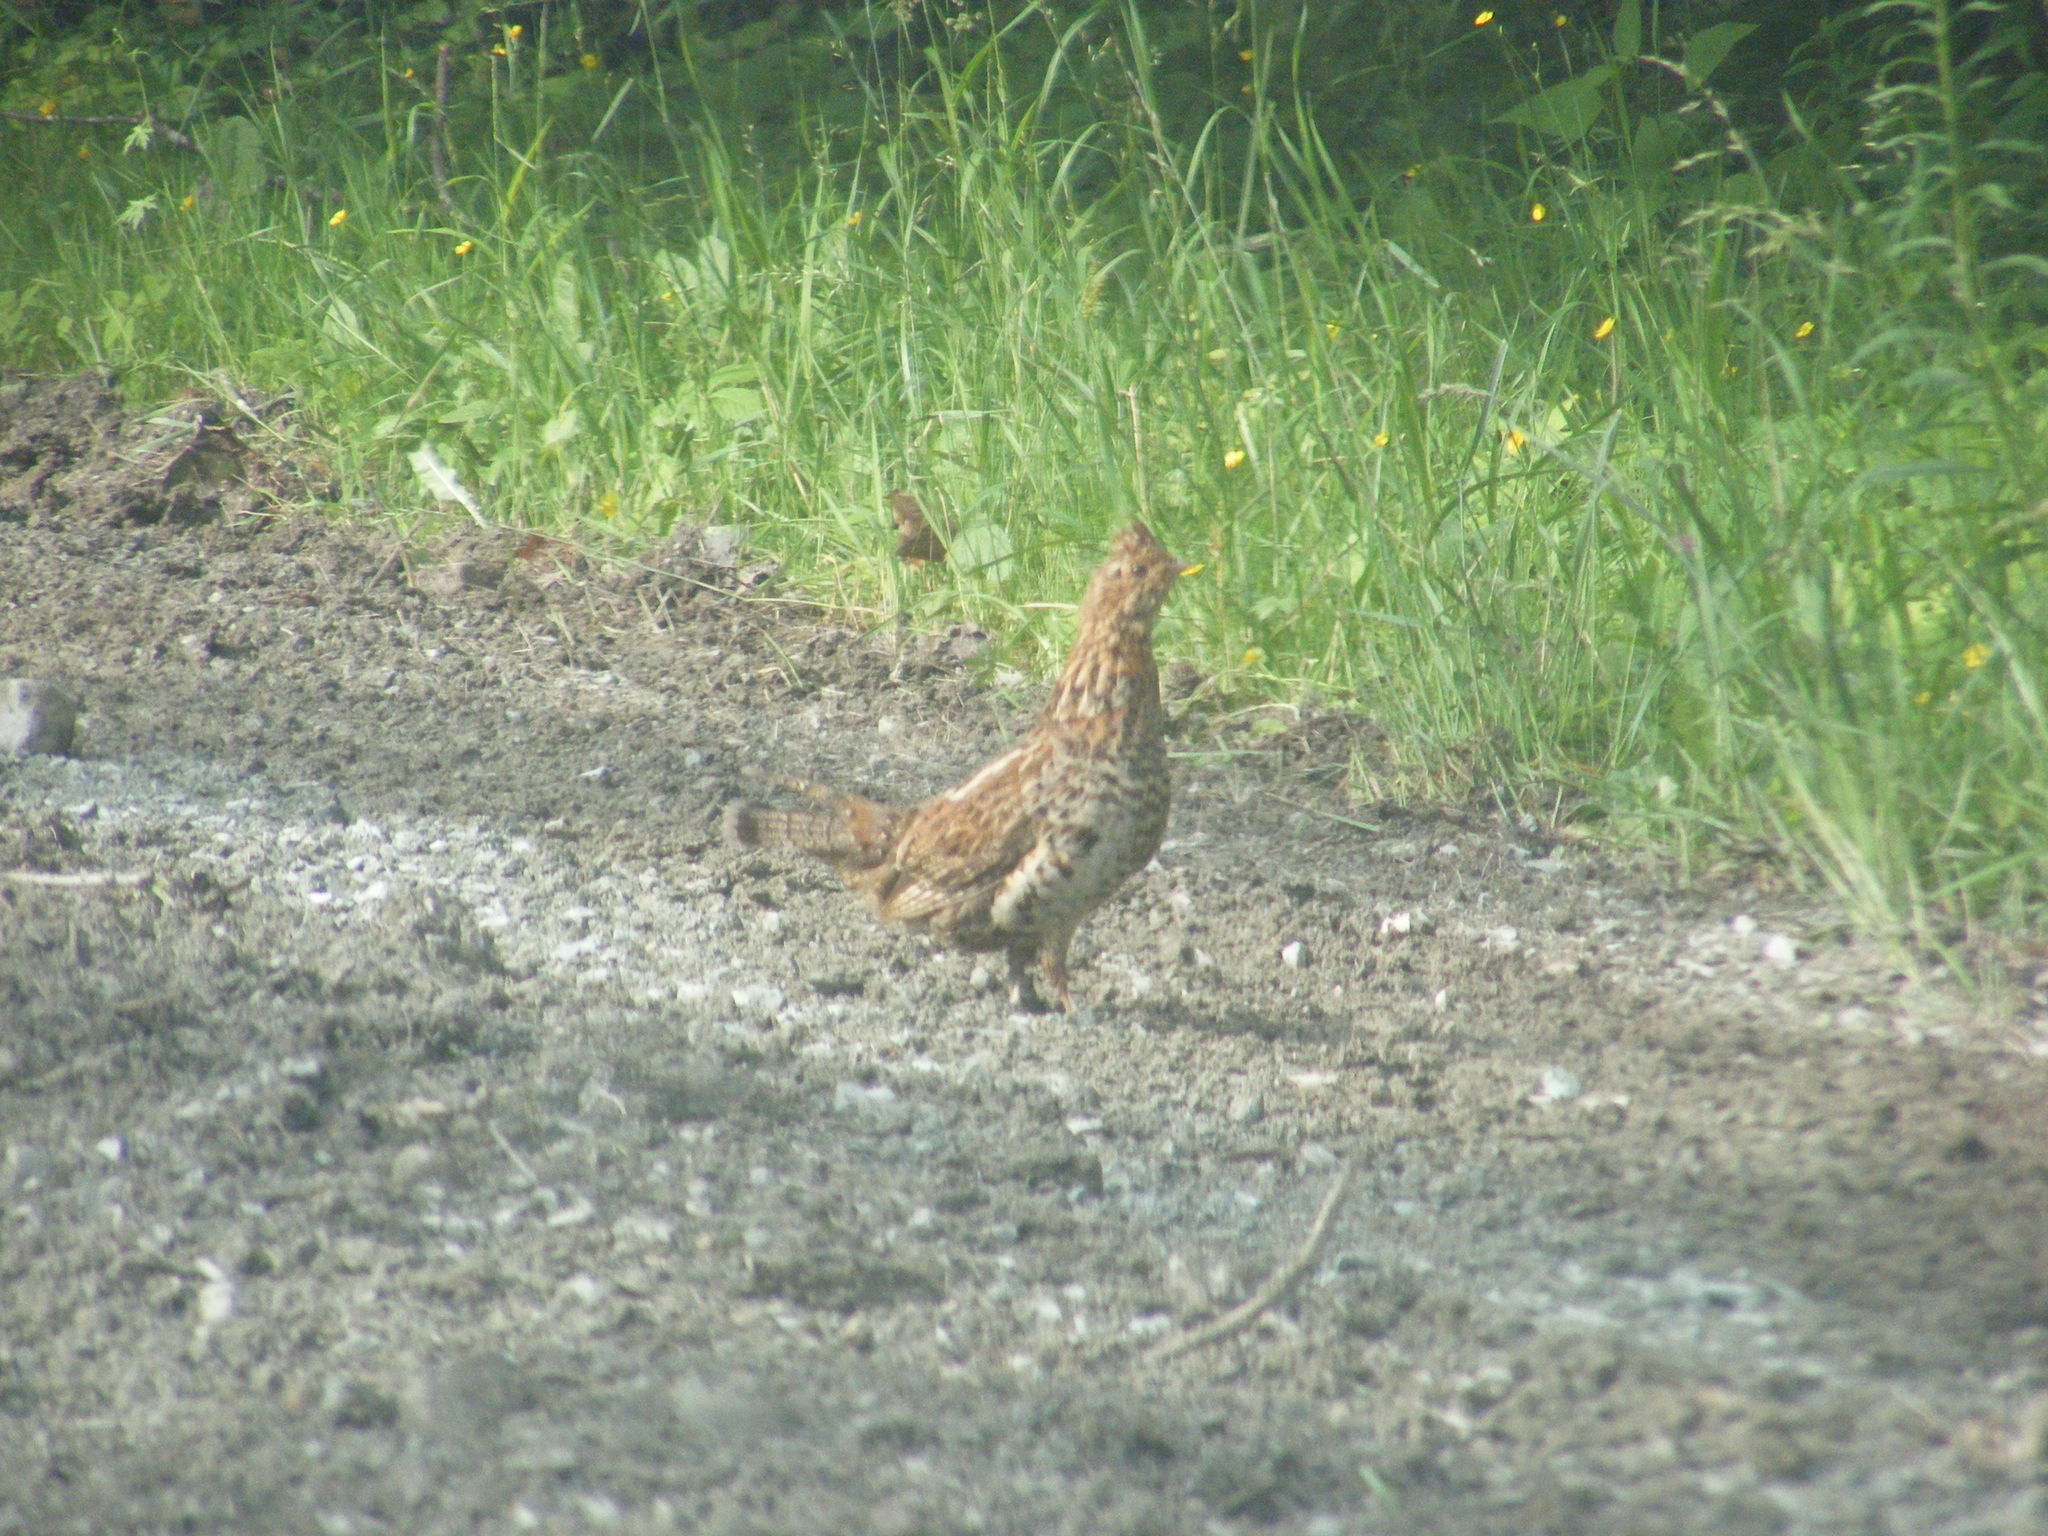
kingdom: Animalia
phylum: Chordata
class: Aves
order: Galliformes
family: Phasianidae
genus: Bonasa
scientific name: Bonasa umbellus
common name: Ruffed grouse
